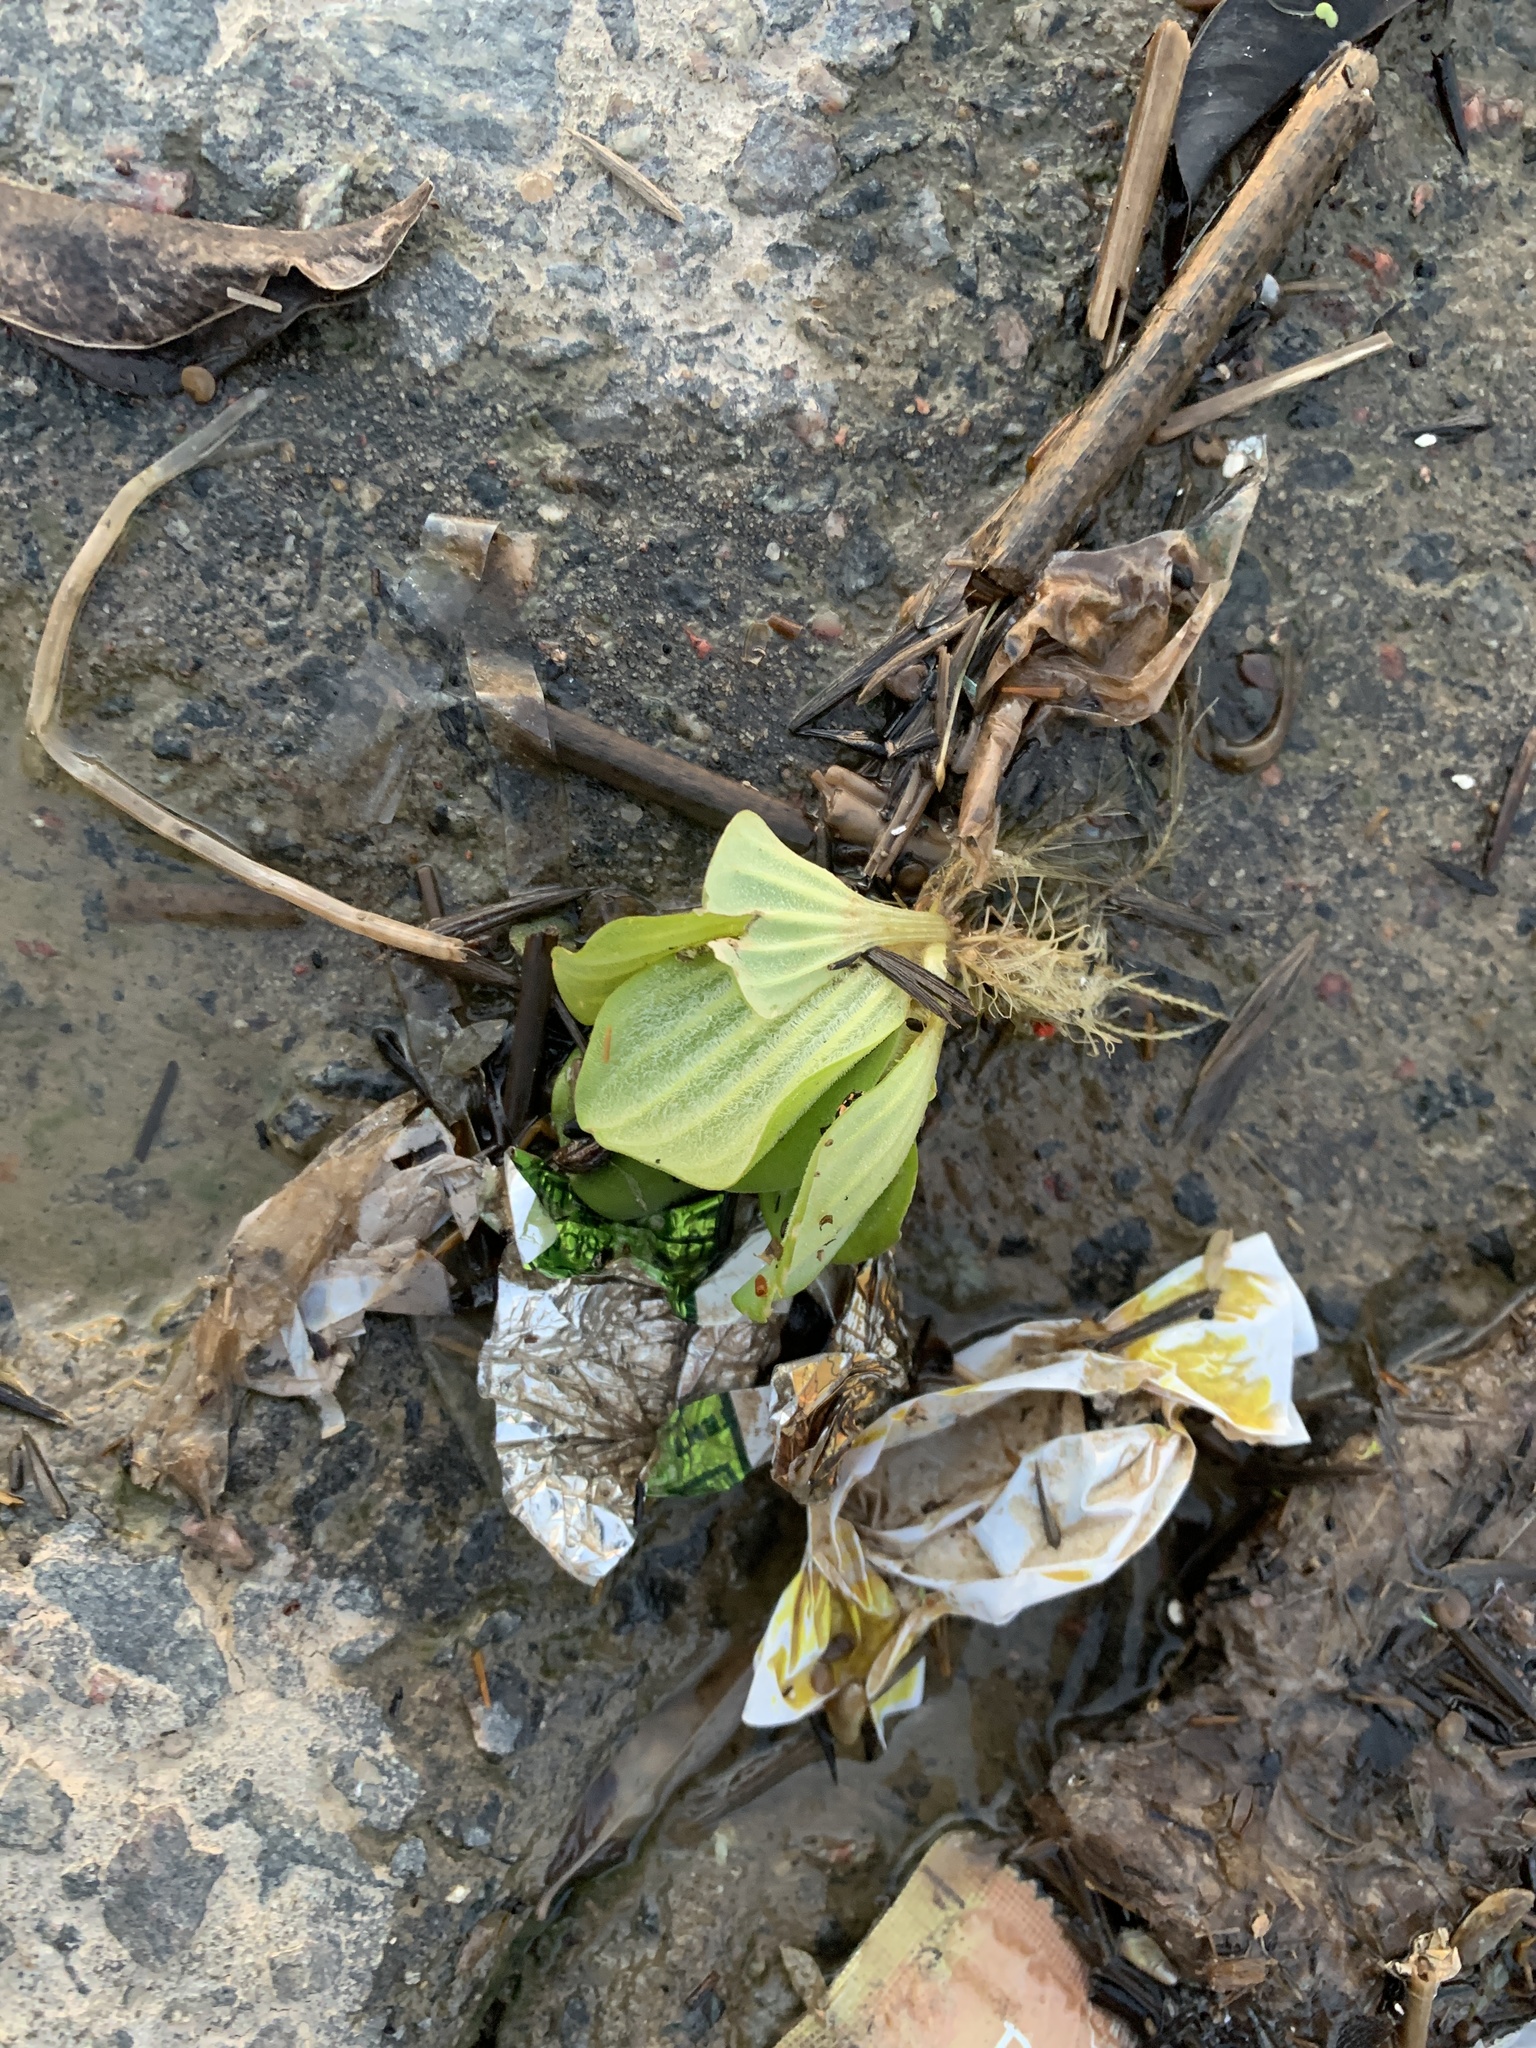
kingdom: Plantae
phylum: Tracheophyta
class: Liliopsida
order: Alismatales
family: Araceae
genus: Pistia
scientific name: Pistia stratiotes
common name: Water lettuce
